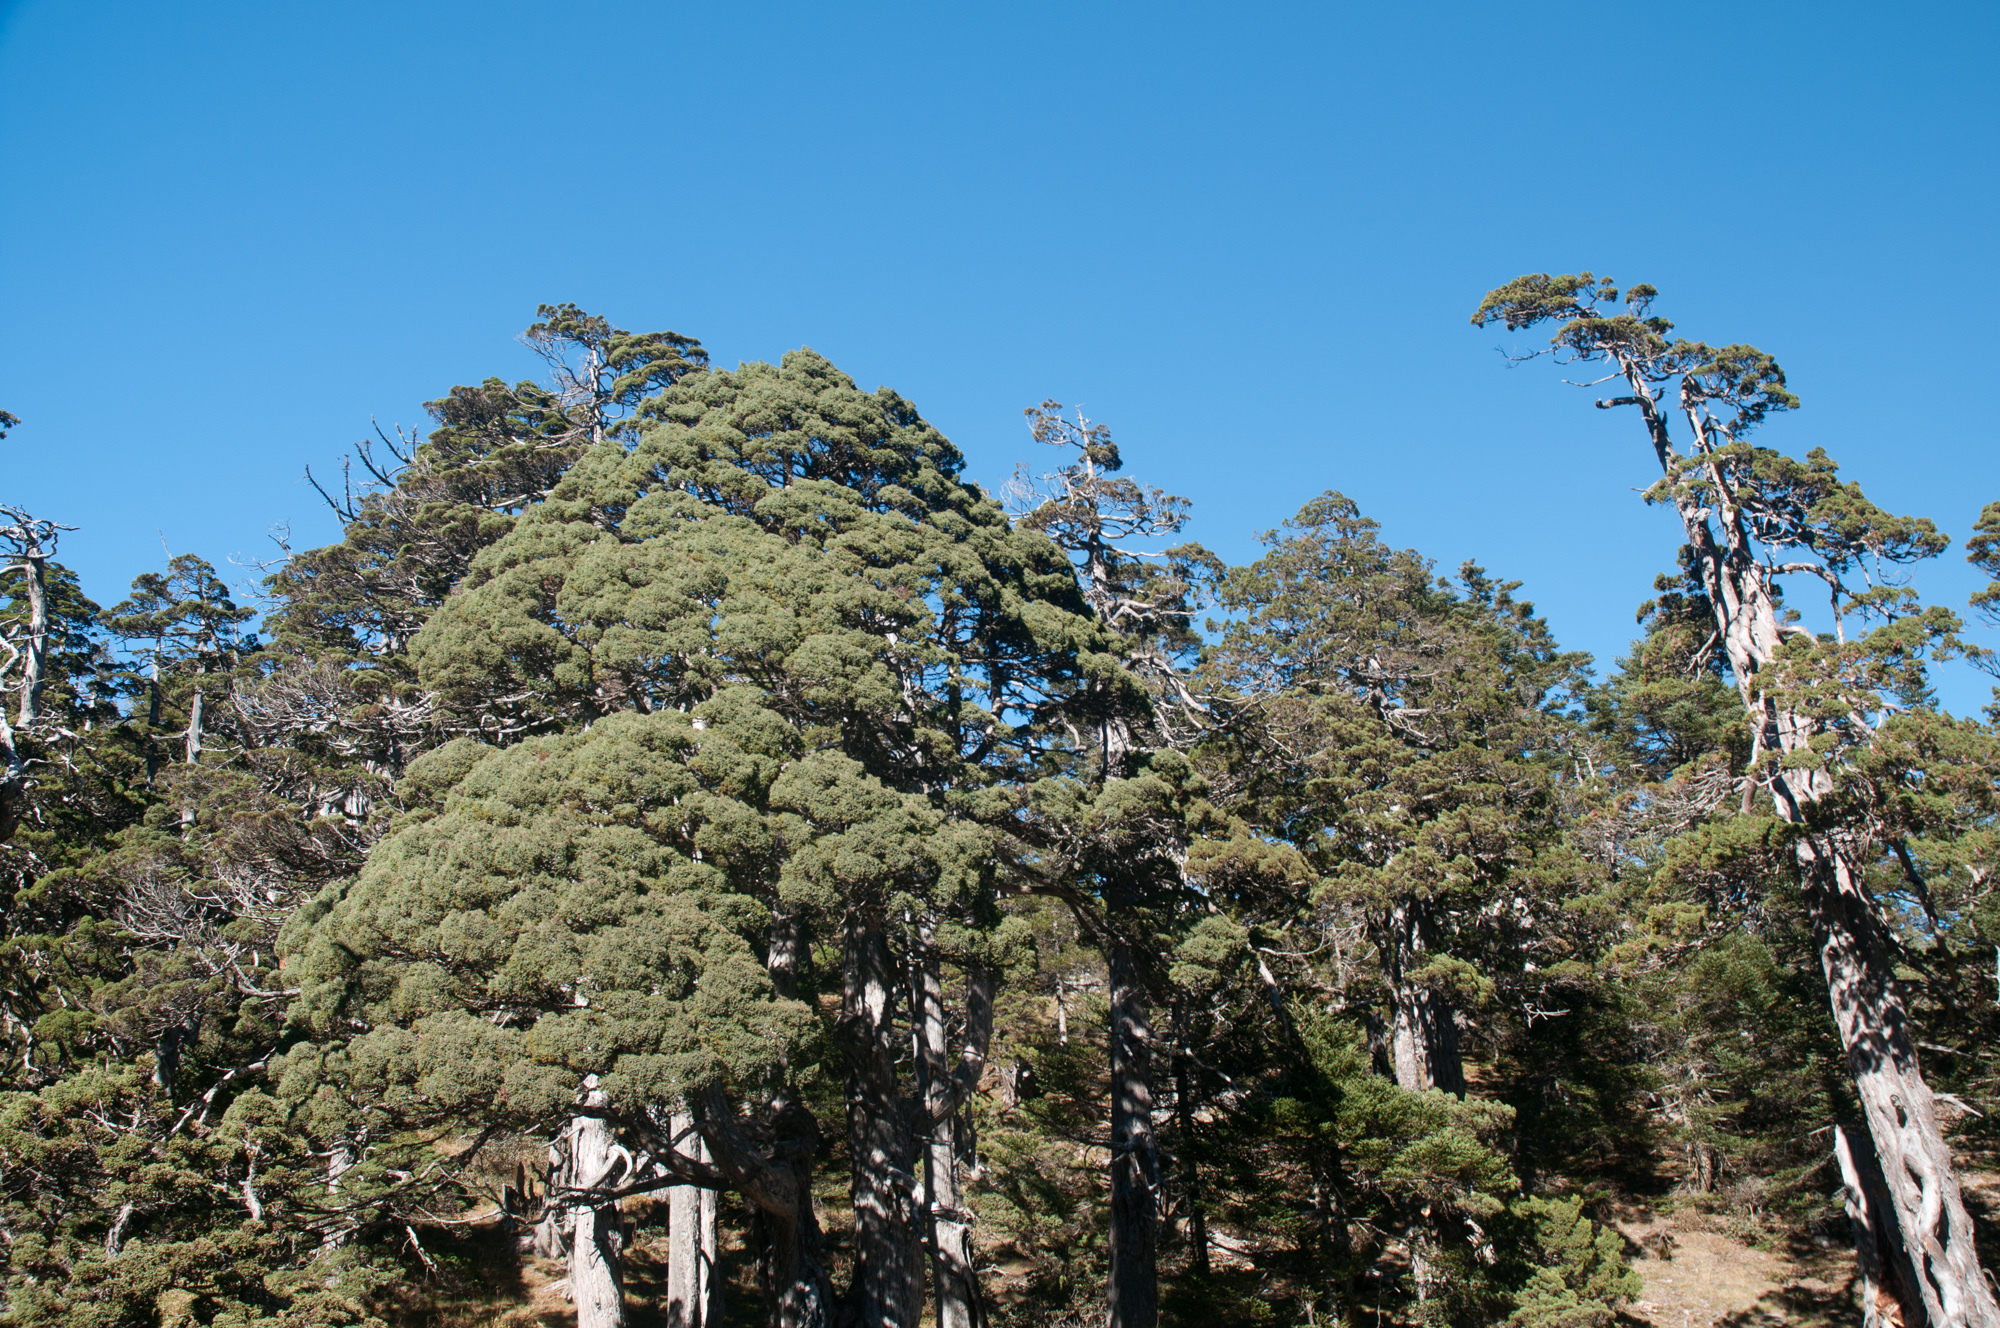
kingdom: Plantae
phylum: Tracheophyta
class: Pinopsida
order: Pinales
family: Cupressaceae
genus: Juniperus
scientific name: Juniperus squamata
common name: Flaky juniper
